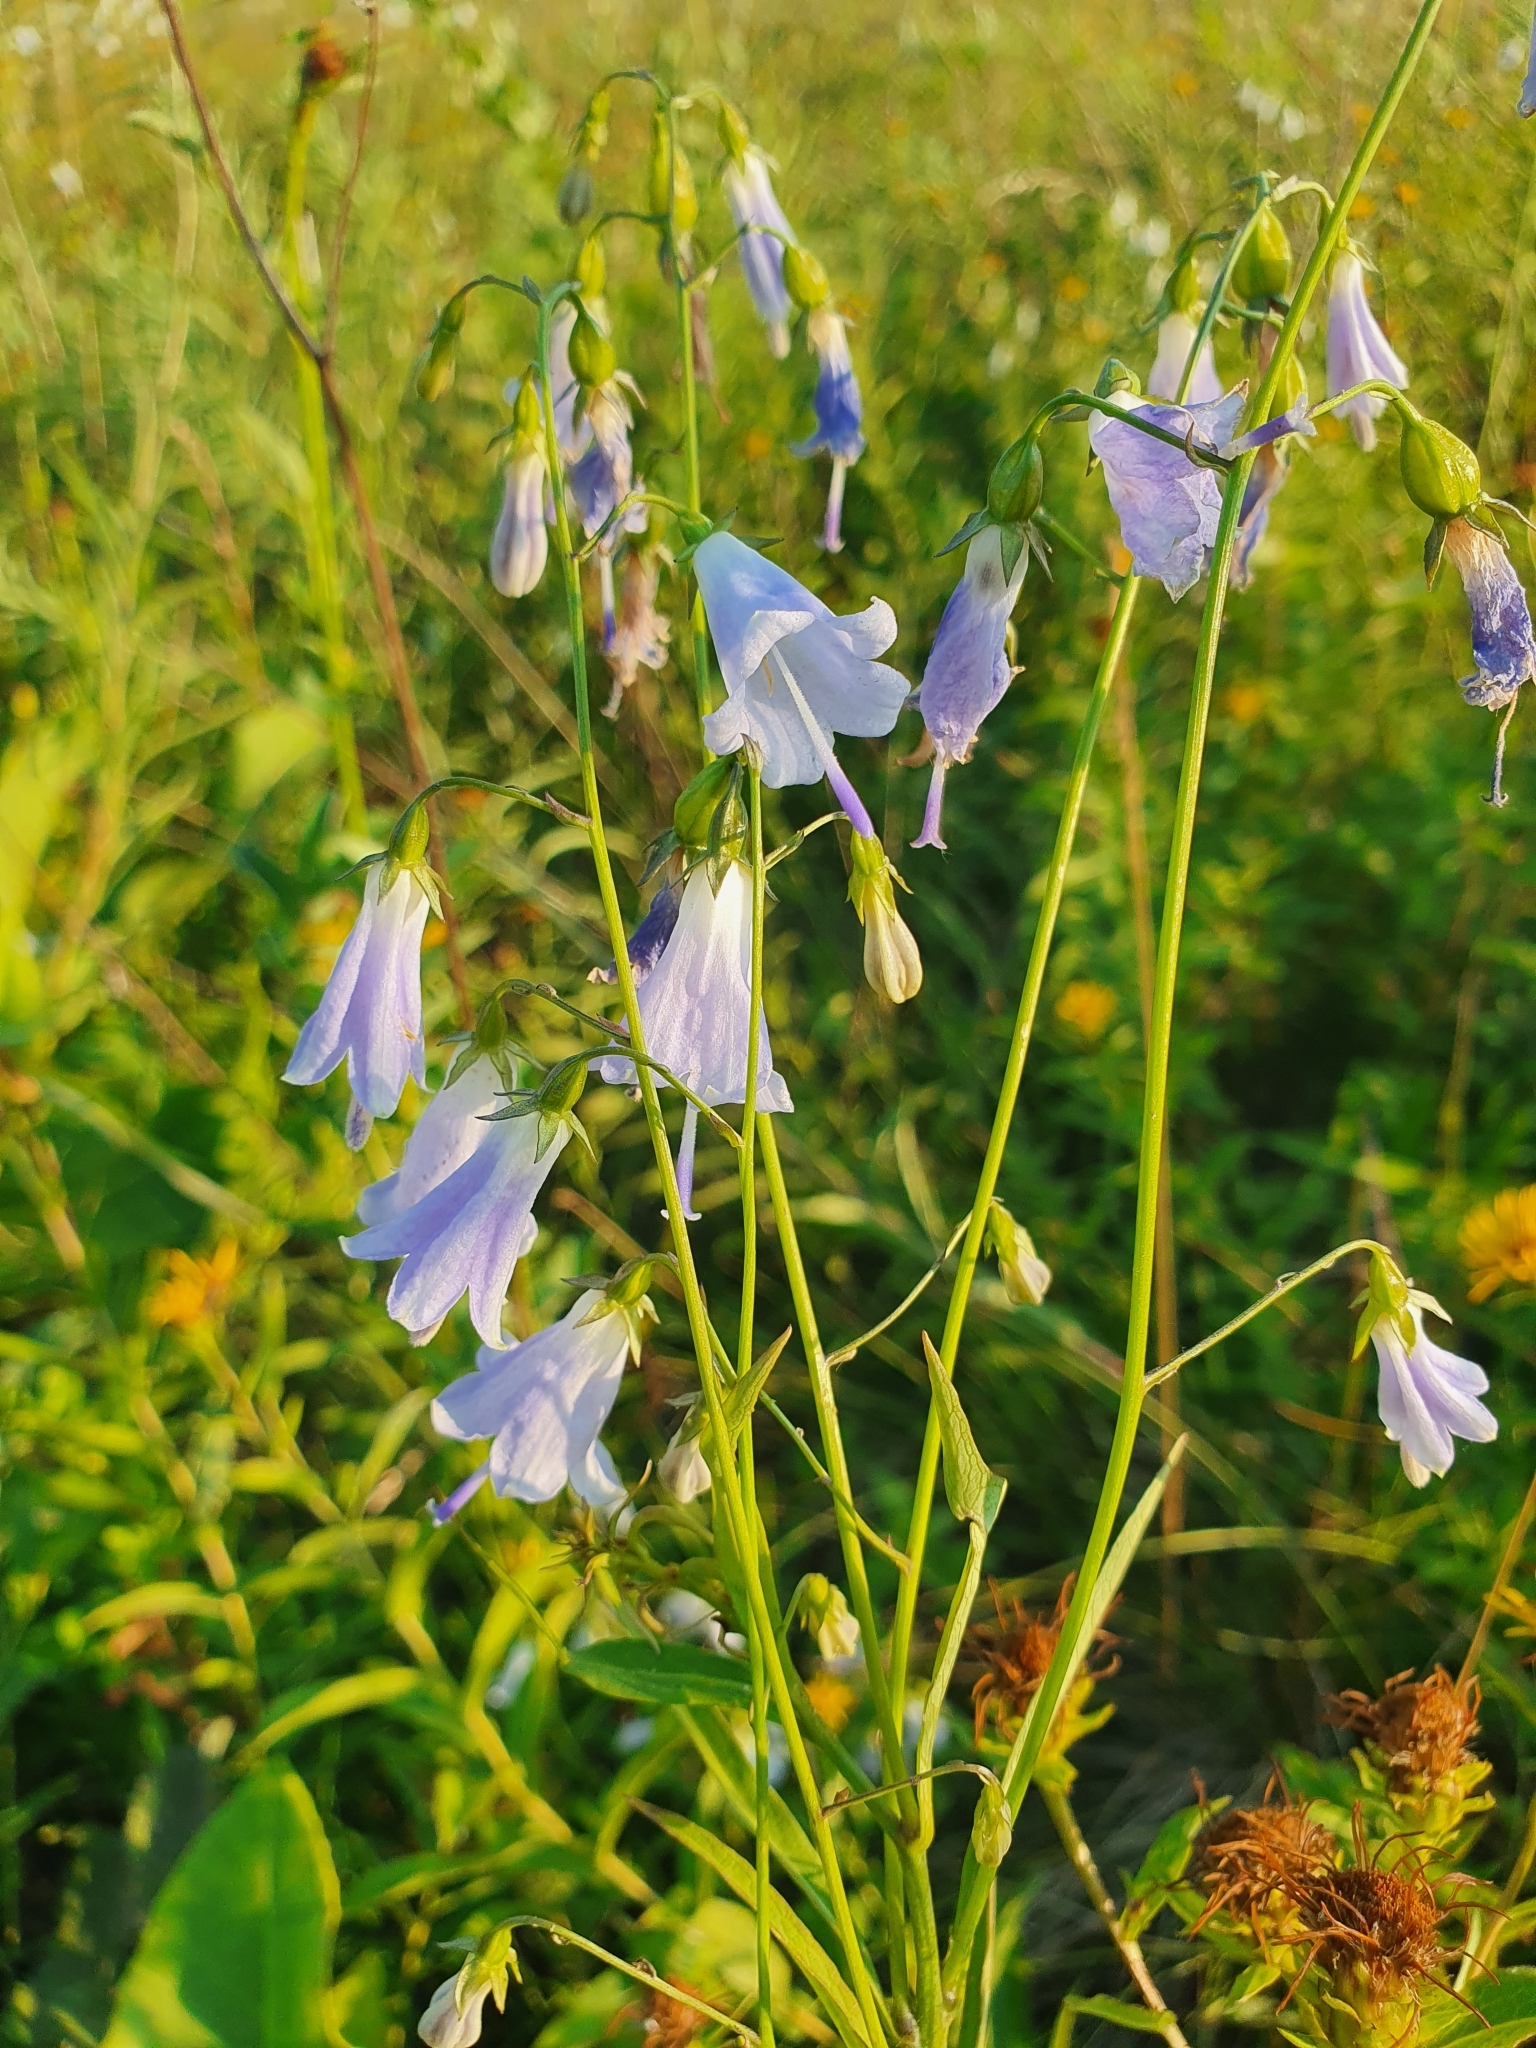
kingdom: Plantae
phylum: Tracheophyta
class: Magnoliopsida
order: Asterales
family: Campanulaceae
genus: Adenophora
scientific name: Adenophora liliifolia
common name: Lilyleaf ladybells
